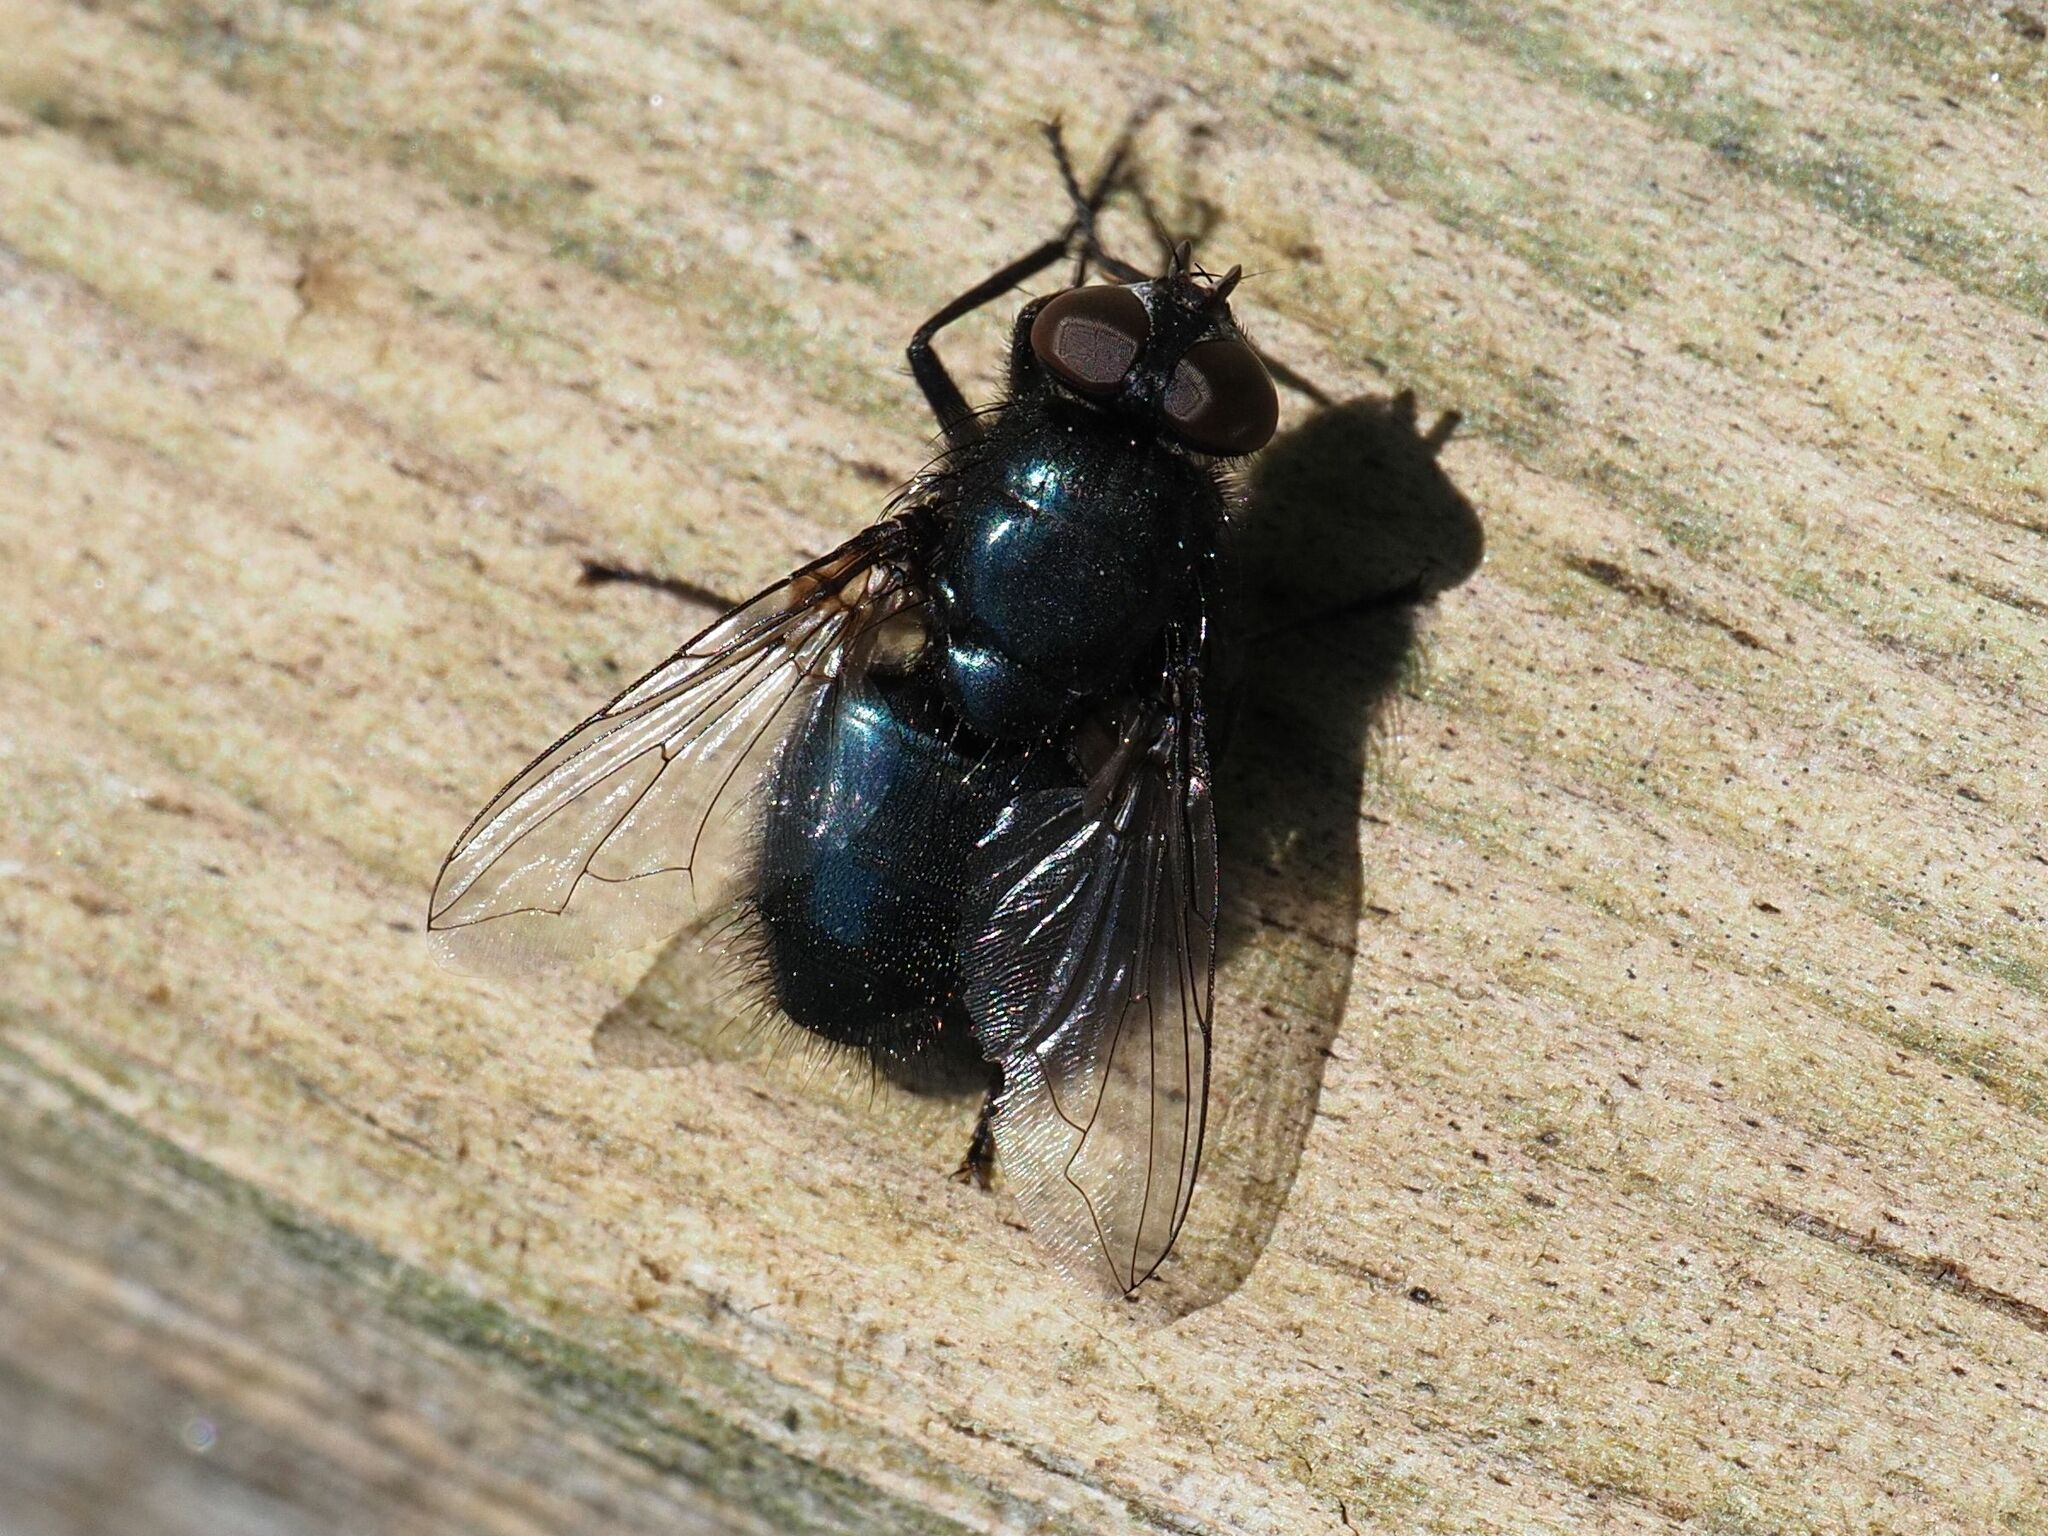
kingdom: Animalia
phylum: Arthropoda
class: Insecta
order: Diptera
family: Calliphoridae
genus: Protophormia
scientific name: Protophormia terraenovae
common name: Blackbottle
